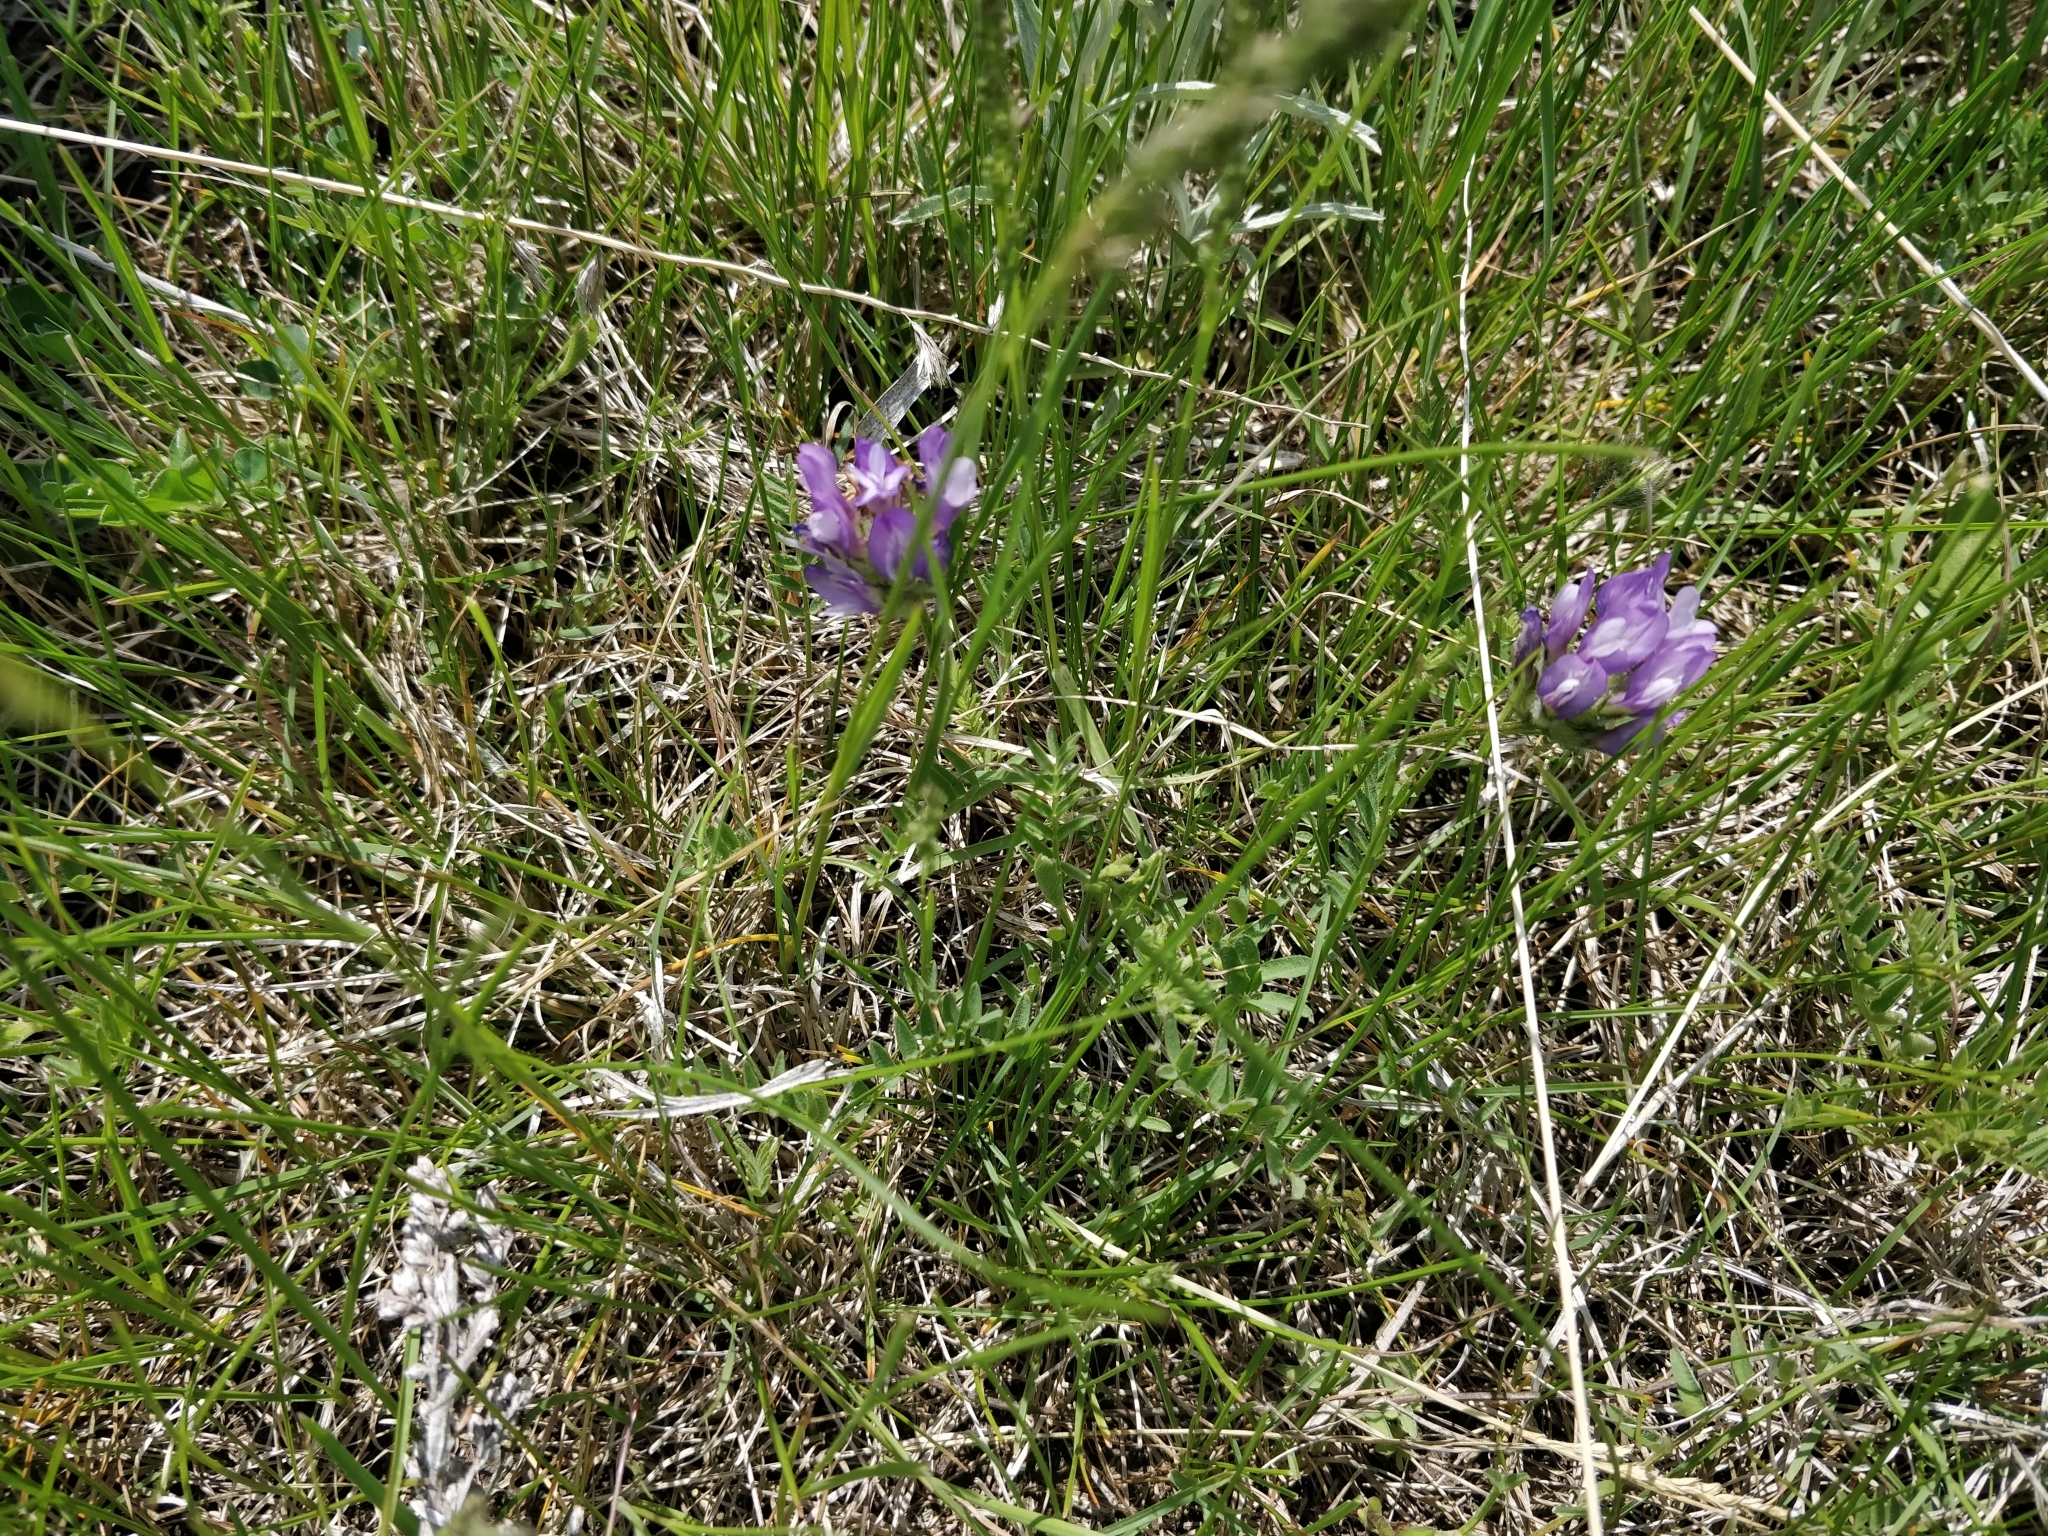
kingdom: Plantae
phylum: Tracheophyta
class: Magnoliopsida
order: Fabales
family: Fabaceae
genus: Astragalus
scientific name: Astragalus agrestis
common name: Field milk-vetch
